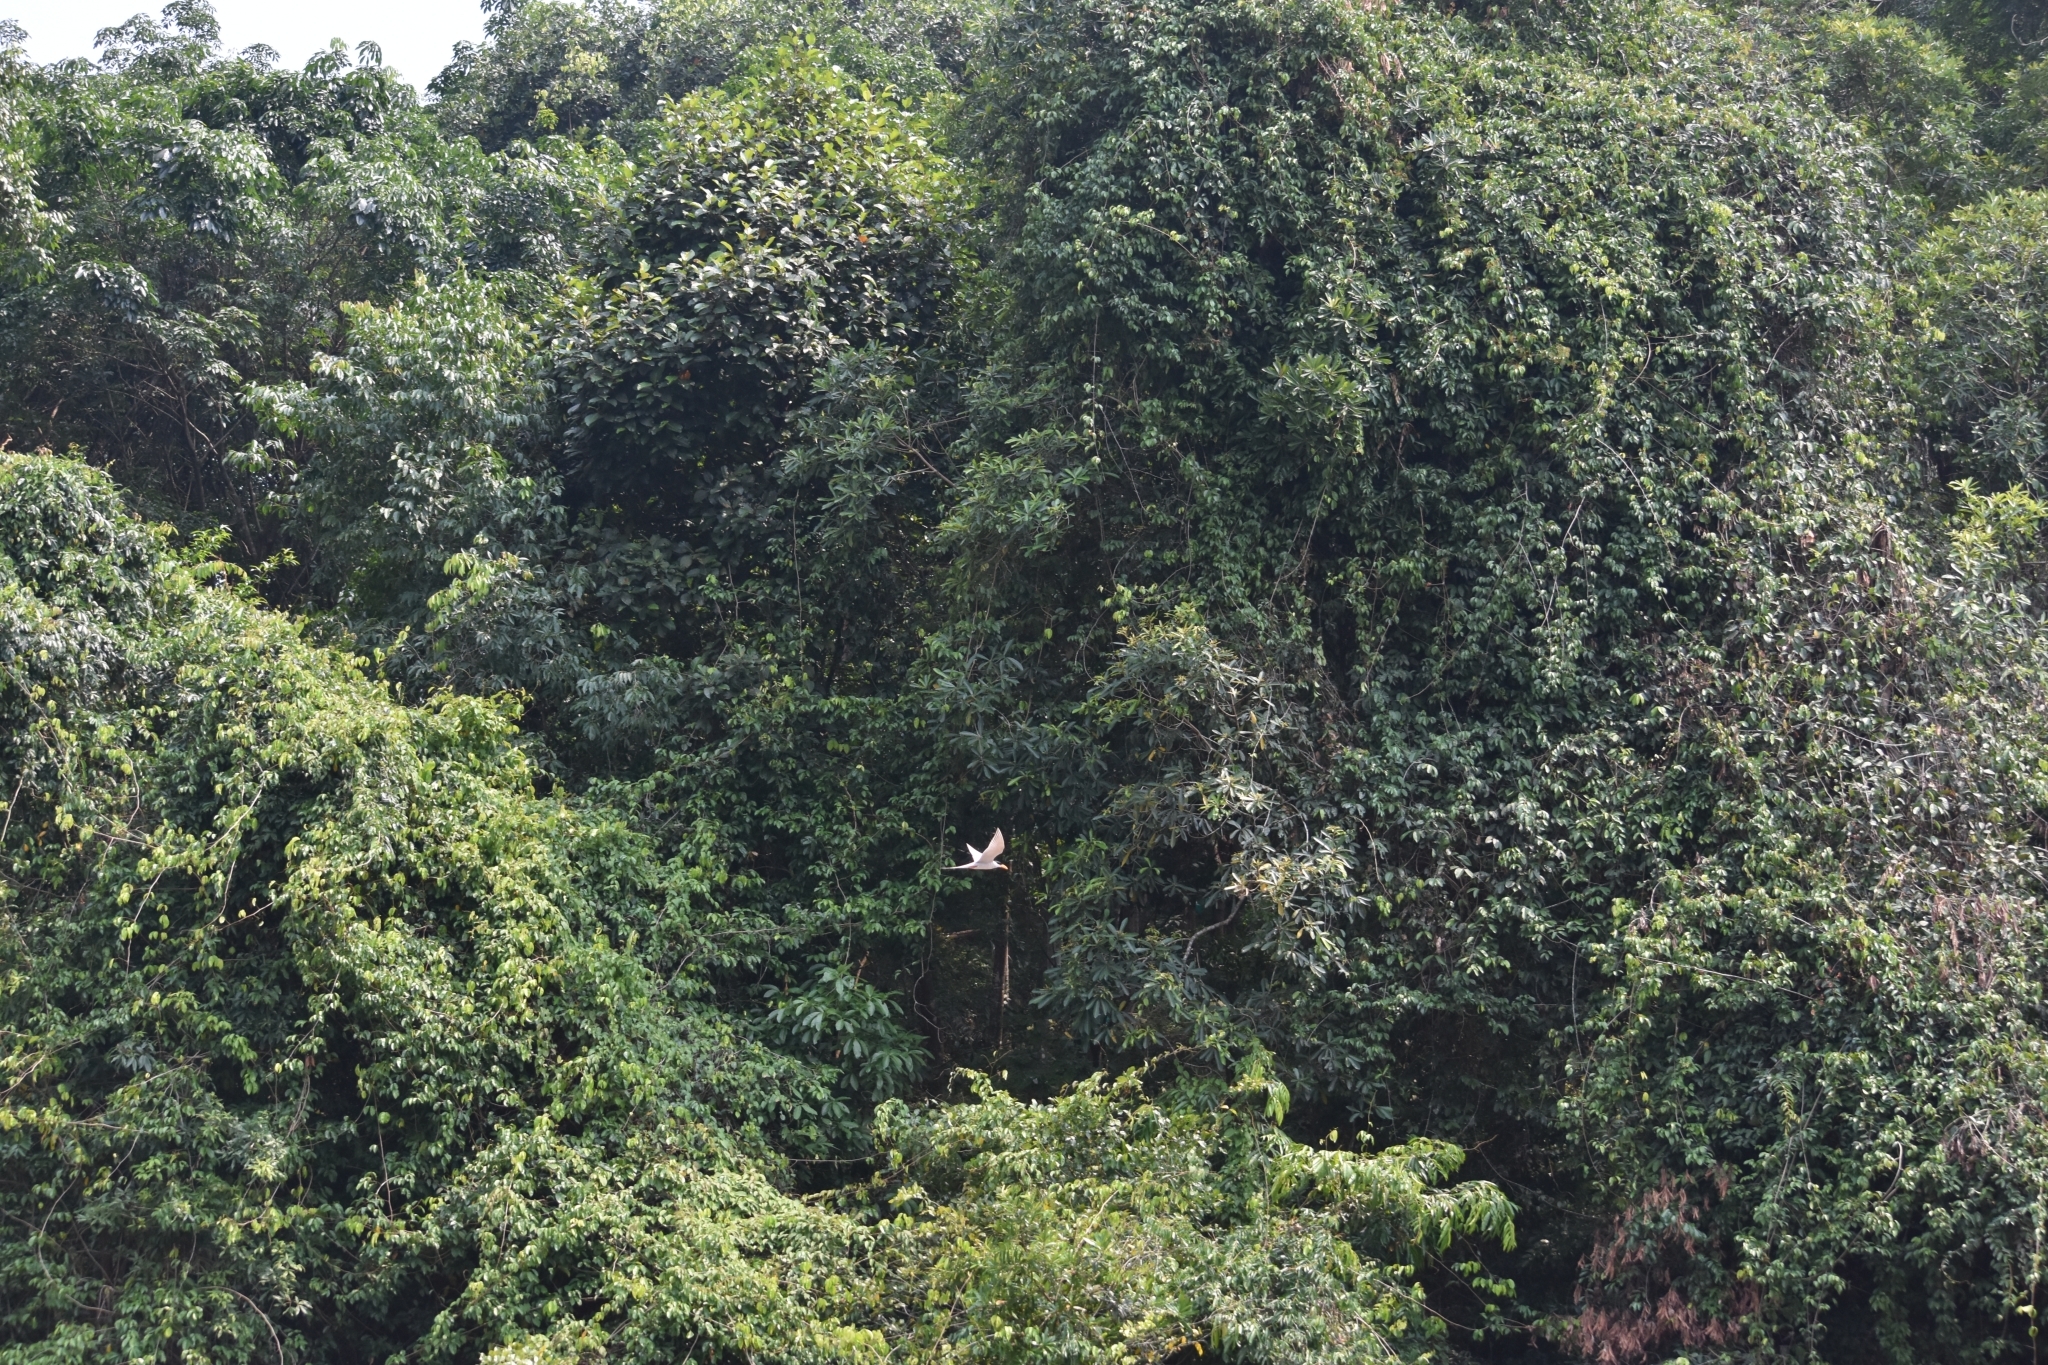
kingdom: Animalia
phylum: Chordata
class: Aves
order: Charadriiformes
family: Laridae
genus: Sterna
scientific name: Sterna aurantia
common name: River tern
